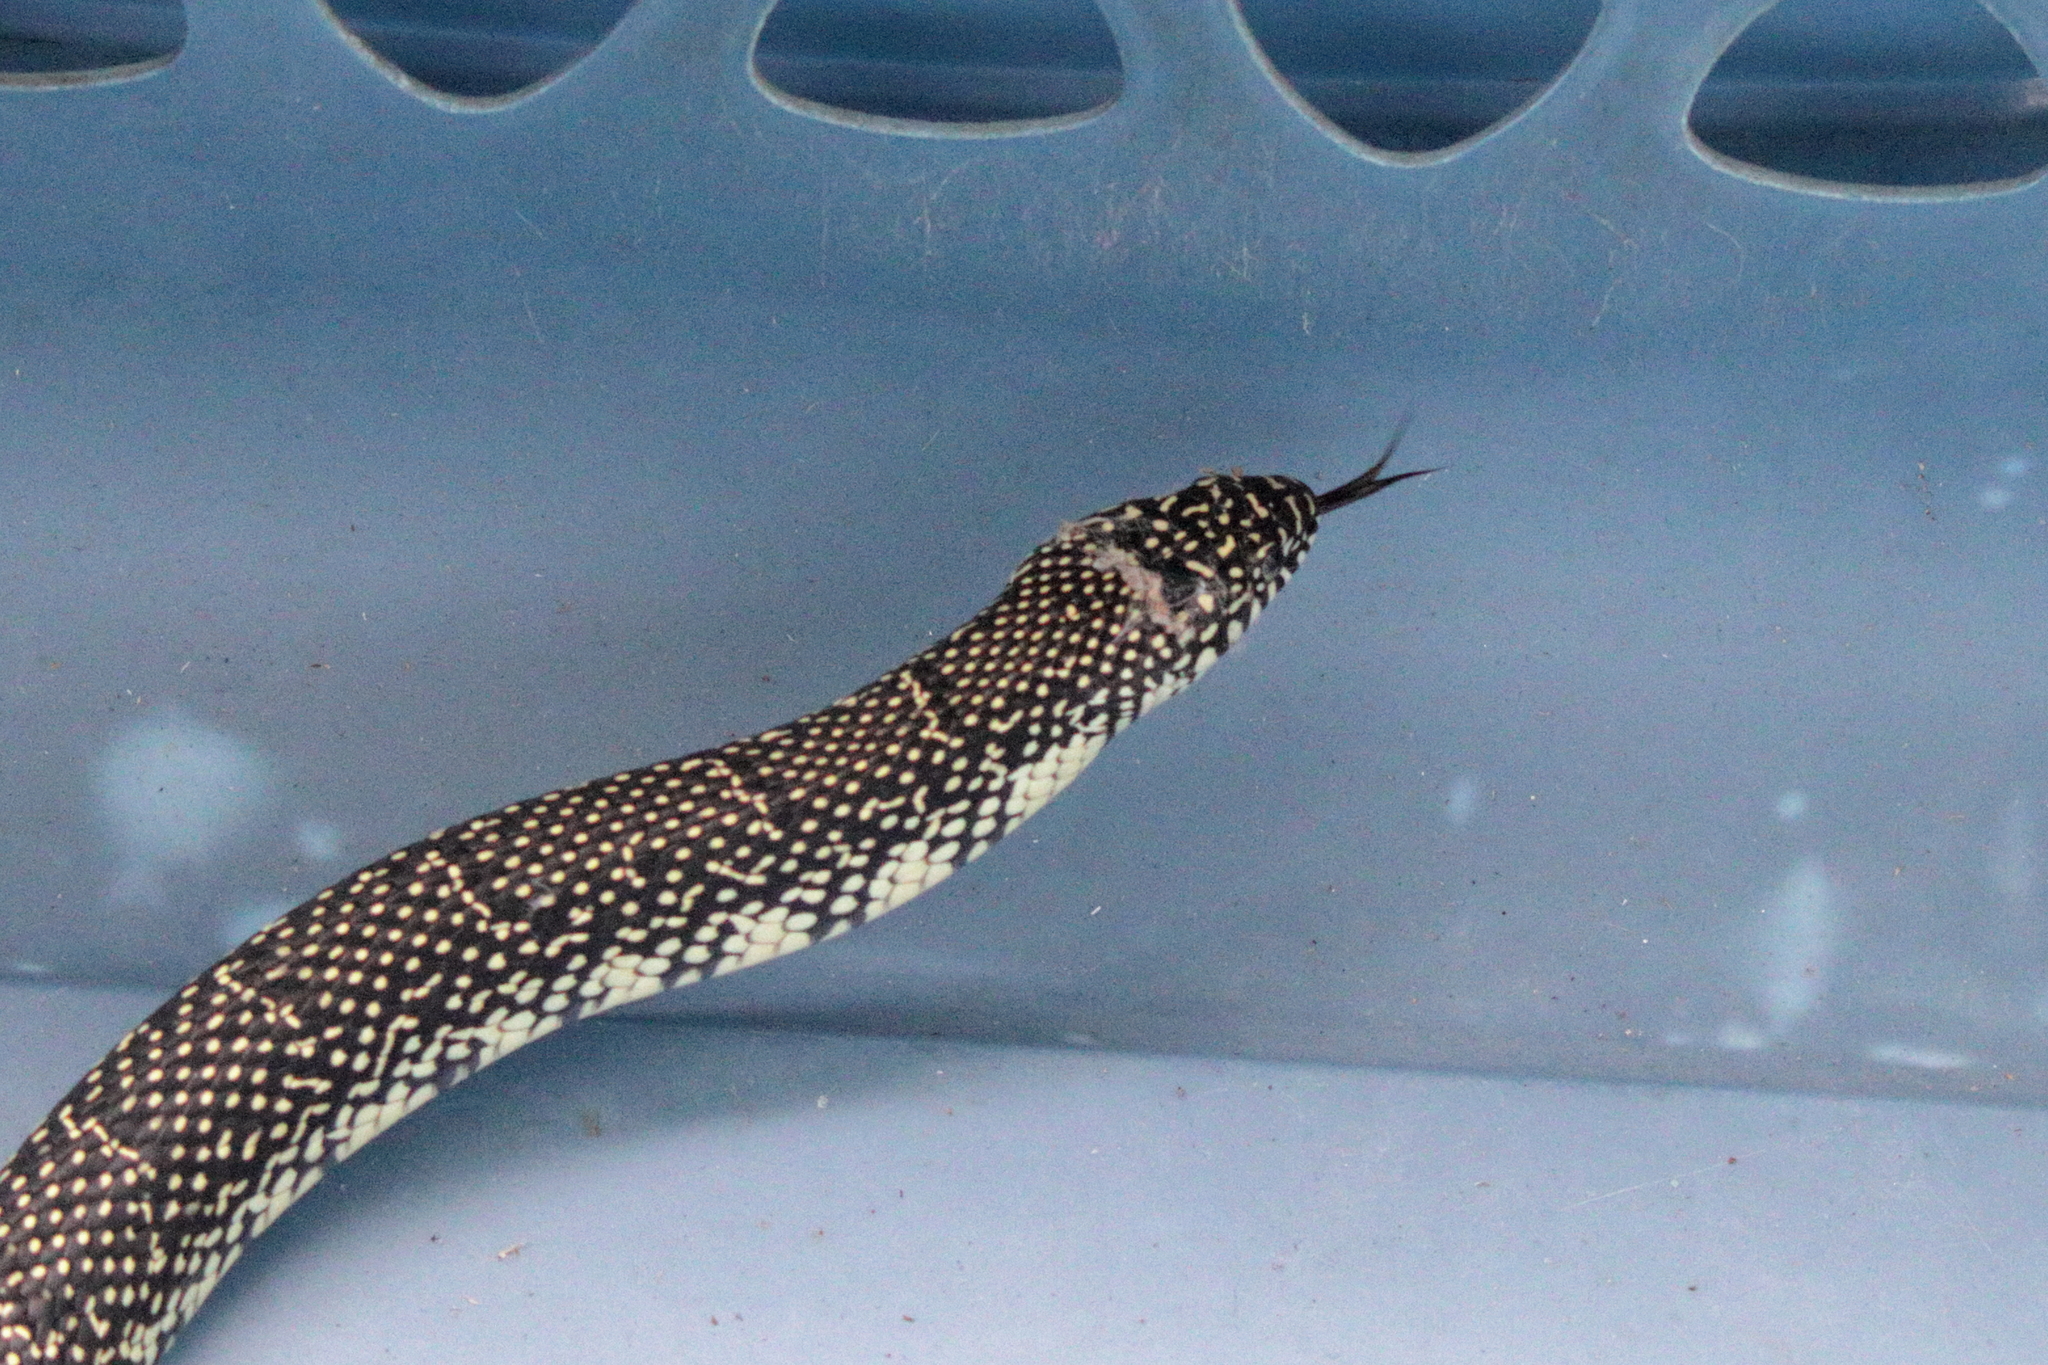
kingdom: Animalia
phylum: Chordata
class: Squamata
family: Colubridae
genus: Lampropeltis
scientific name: Lampropeltis holbrooki
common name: Speckled kingsnake
